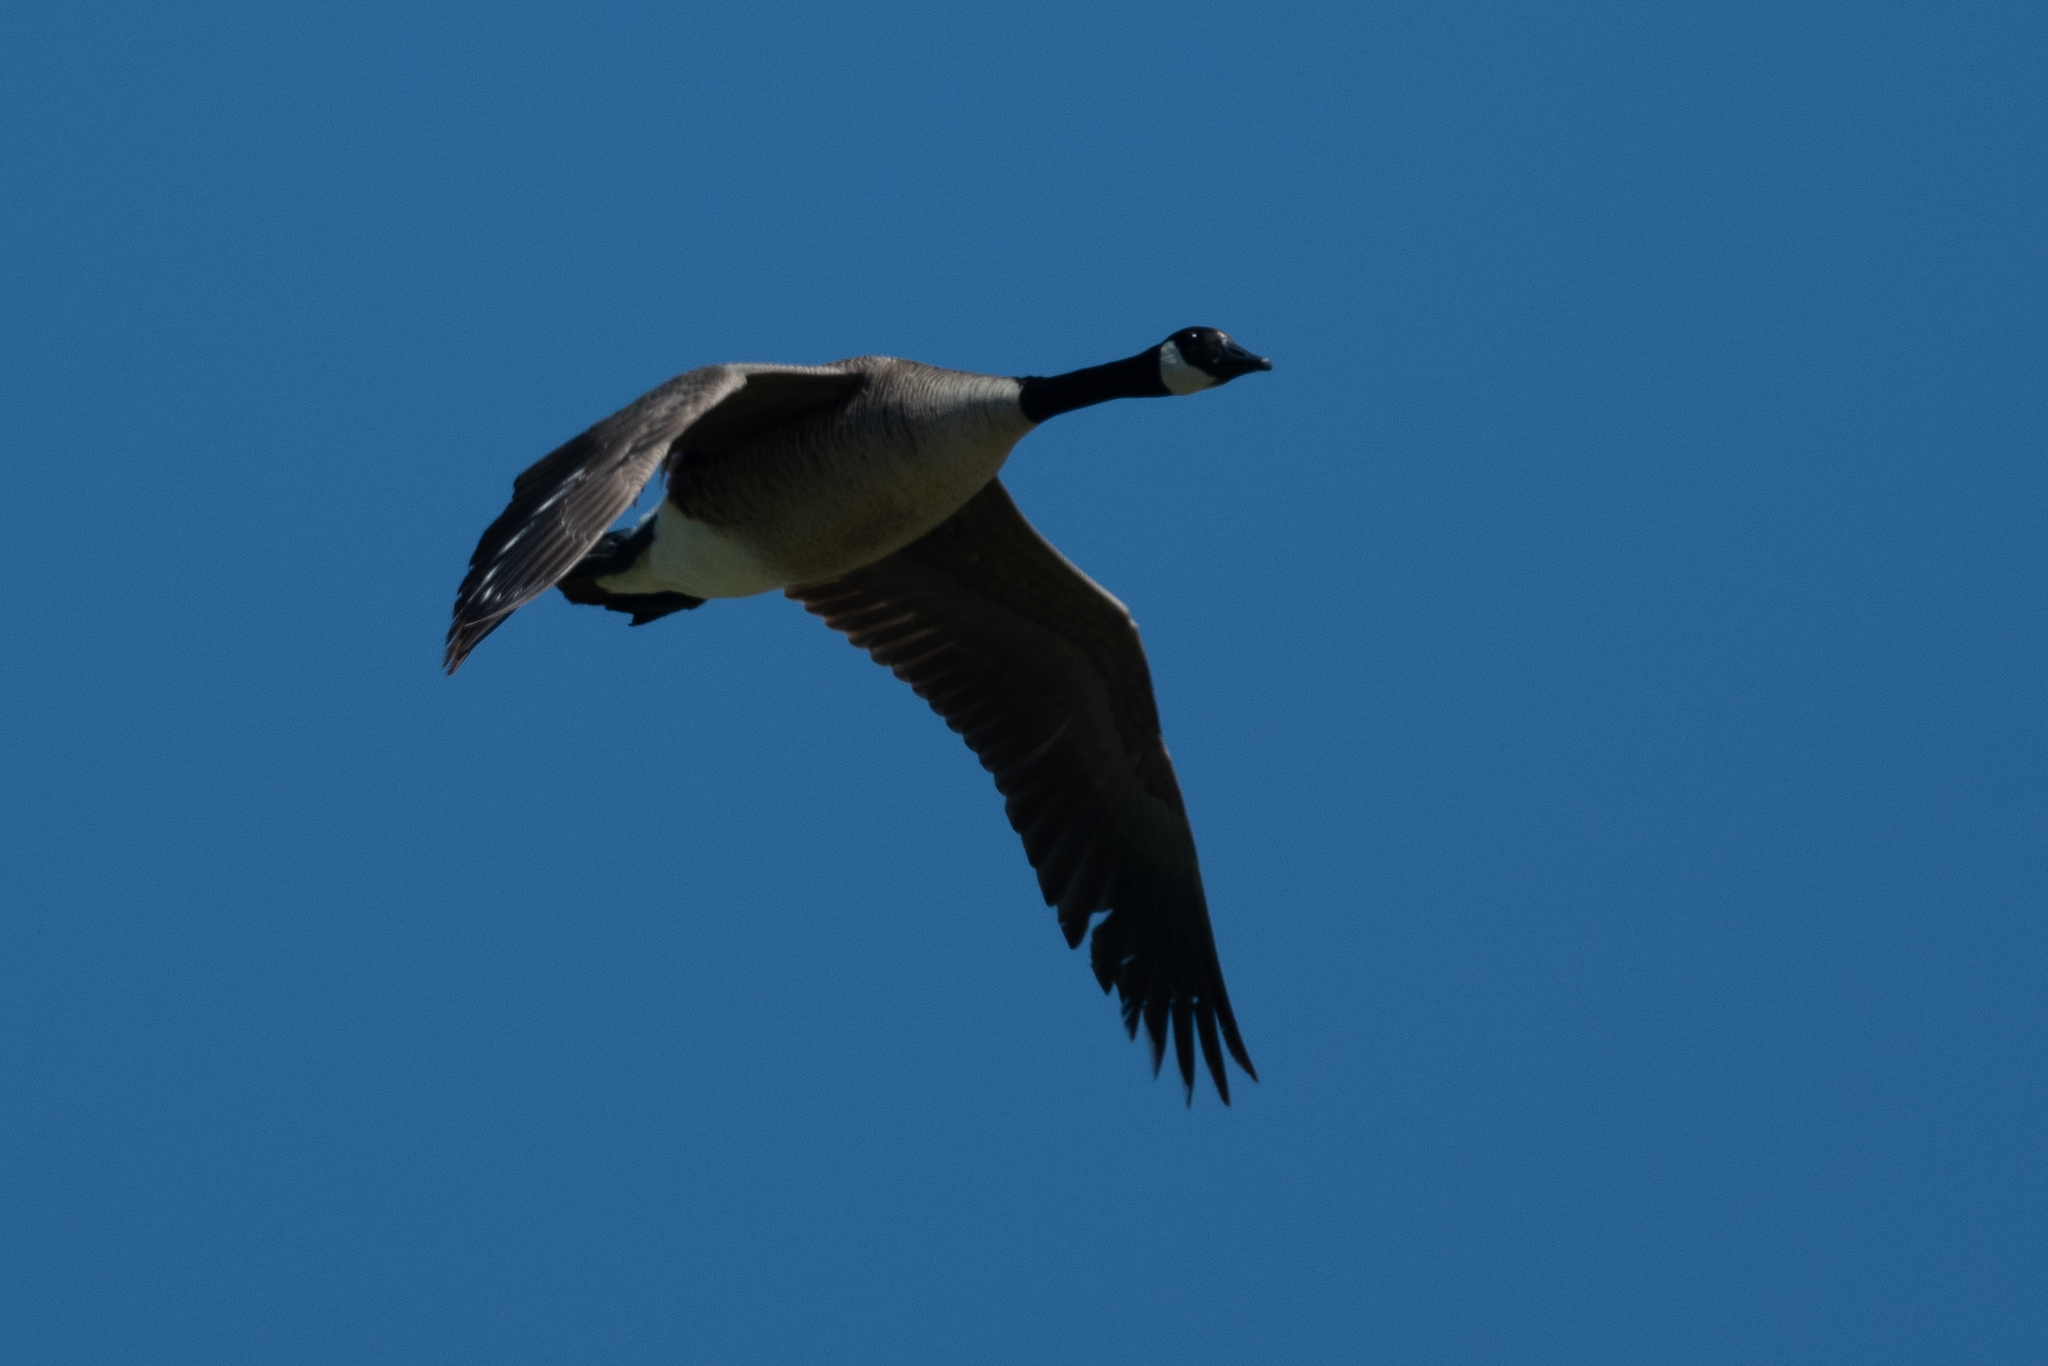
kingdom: Animalia
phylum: Chordata
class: Aves
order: Anseriformes
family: Anatidae
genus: Branta
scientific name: Branta canadensis
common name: Canada goose
